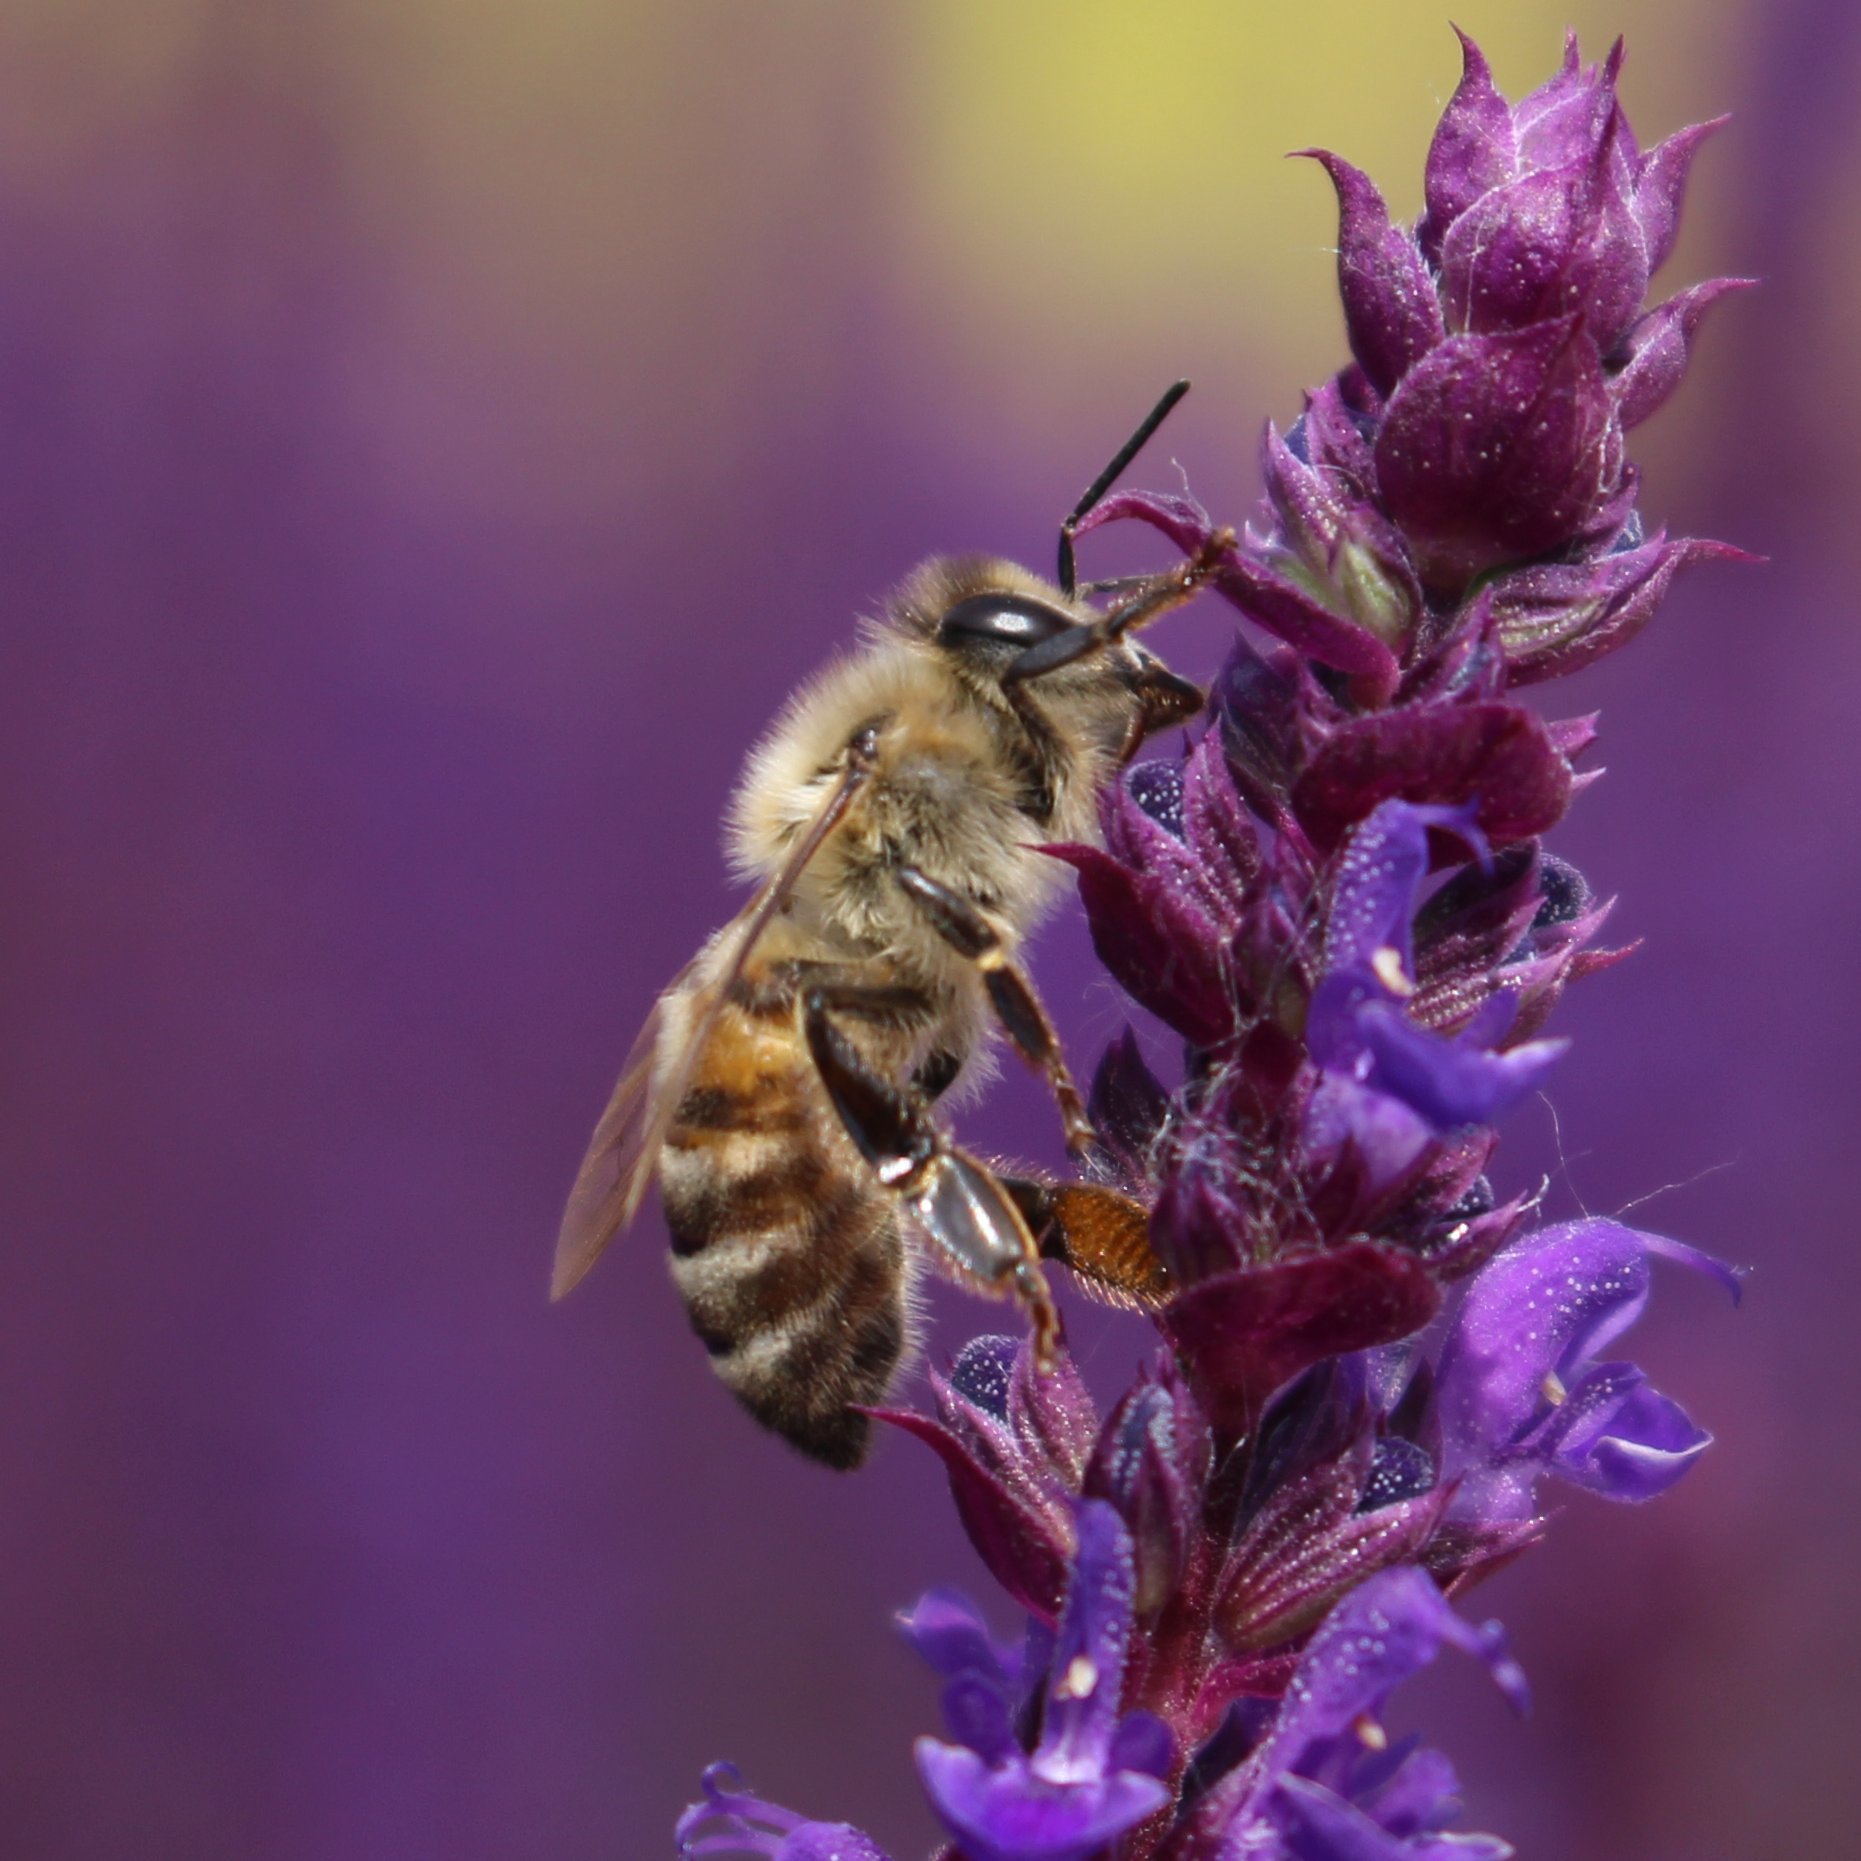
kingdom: Animalia
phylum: Arthropoda
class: Insecta
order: Hymenoptera
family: Apidae
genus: Apis
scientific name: Apis mellifera
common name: Honey bee
